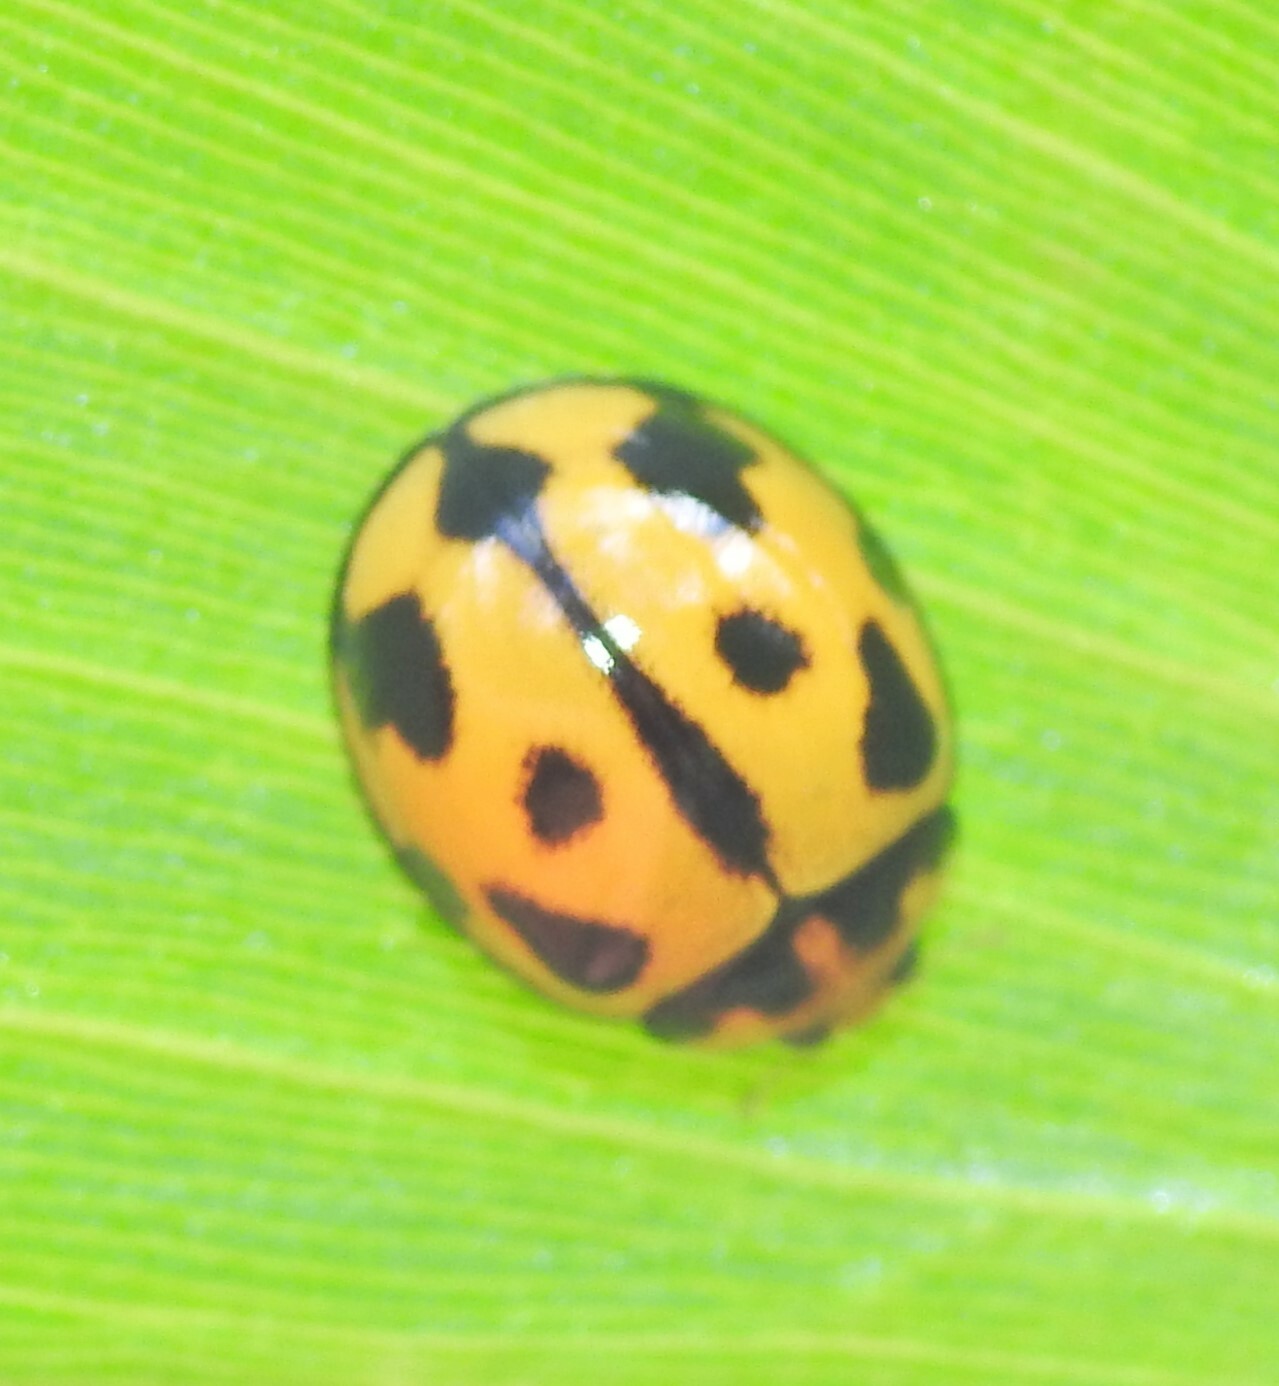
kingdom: Animalia
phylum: Arthropoda
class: Insecta
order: Coleoptera
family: Coccinellidae
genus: Coelophora
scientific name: Coelophora inaequalis
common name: Common australian lady beetle
